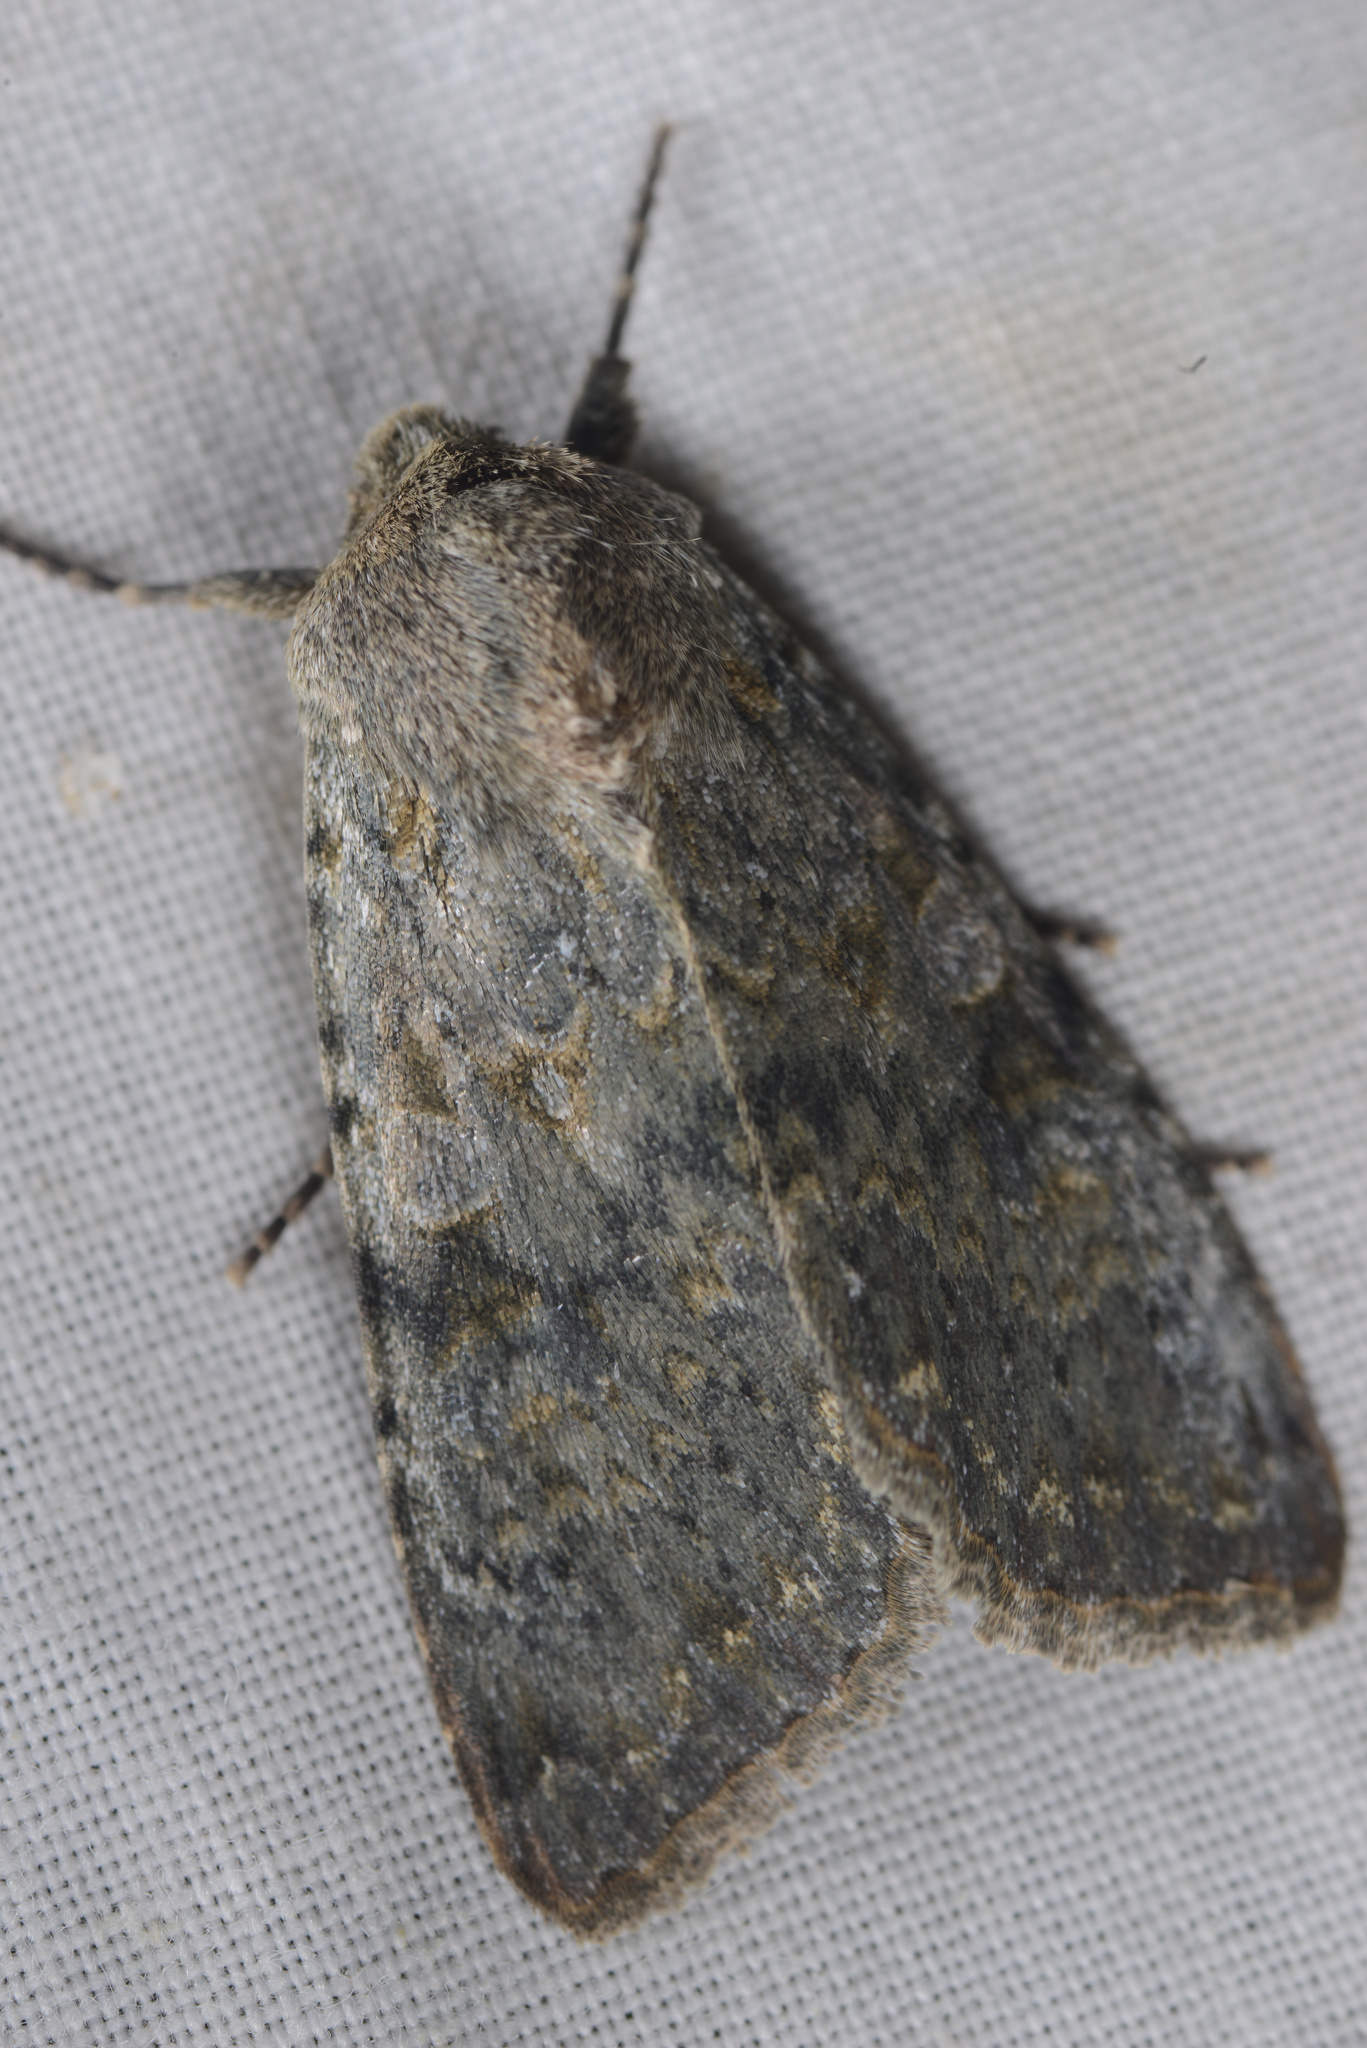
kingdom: Animalia
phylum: Arthropoda
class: Insecta
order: Lepidoptera
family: Noctuidae
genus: Ichneutica
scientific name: Ichneutica
